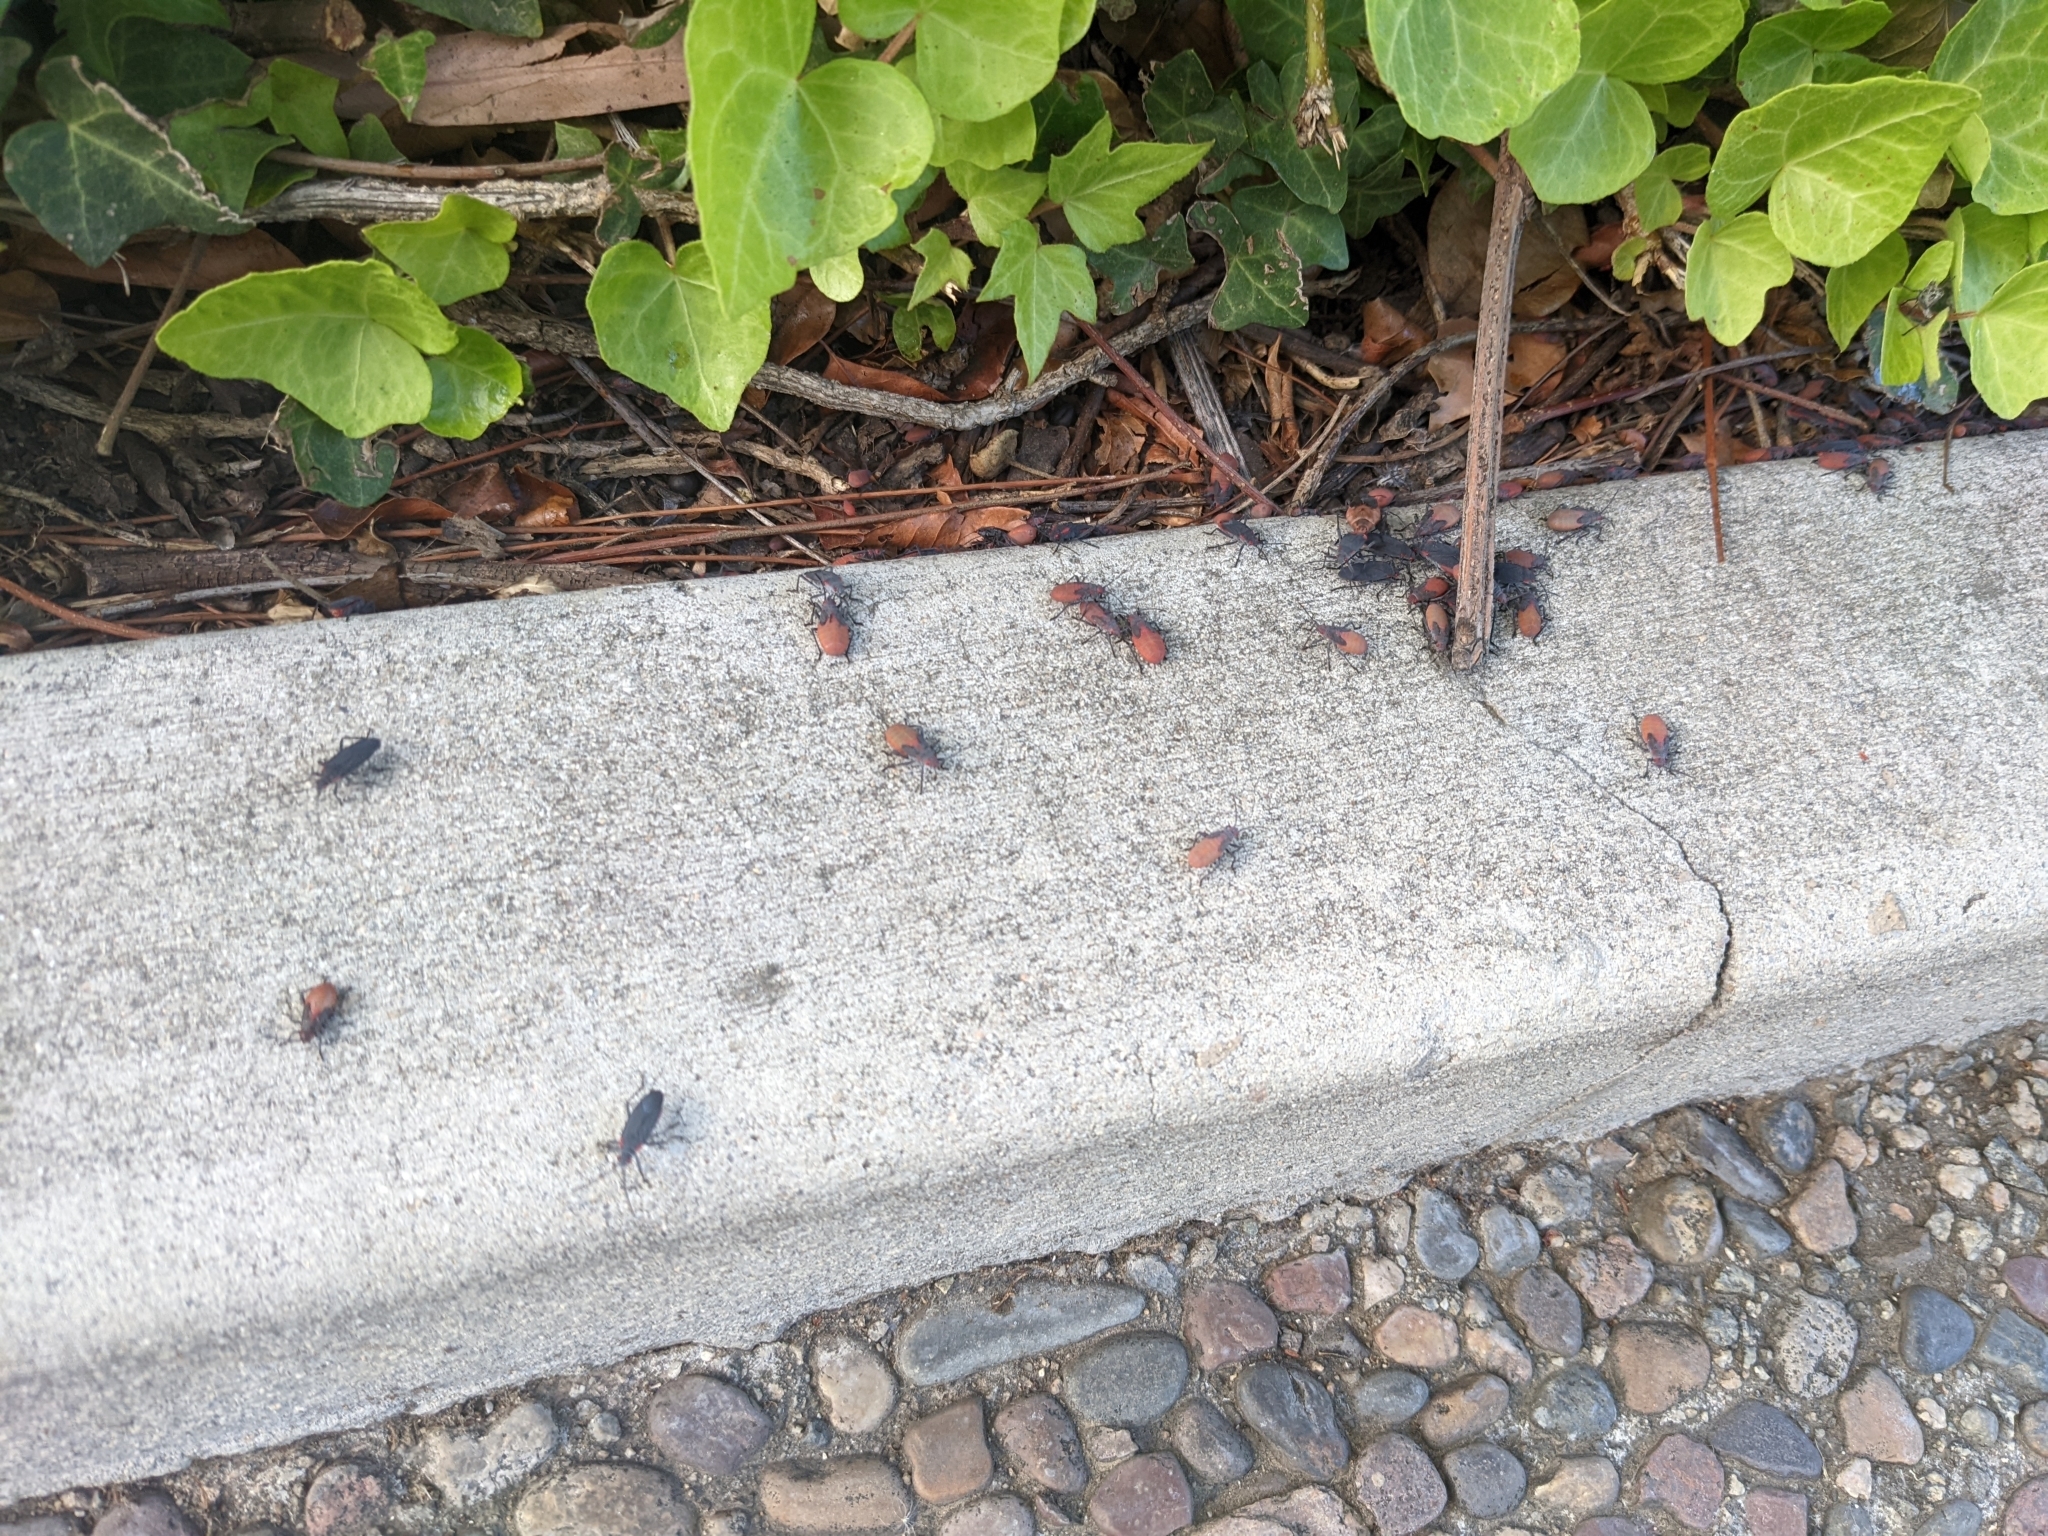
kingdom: Animalia
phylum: Arthropoda
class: Insecta
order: Hemiptera
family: Rhopalidae
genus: Jadera
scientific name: Jadera haematoloma
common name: Red-shouldered bug
